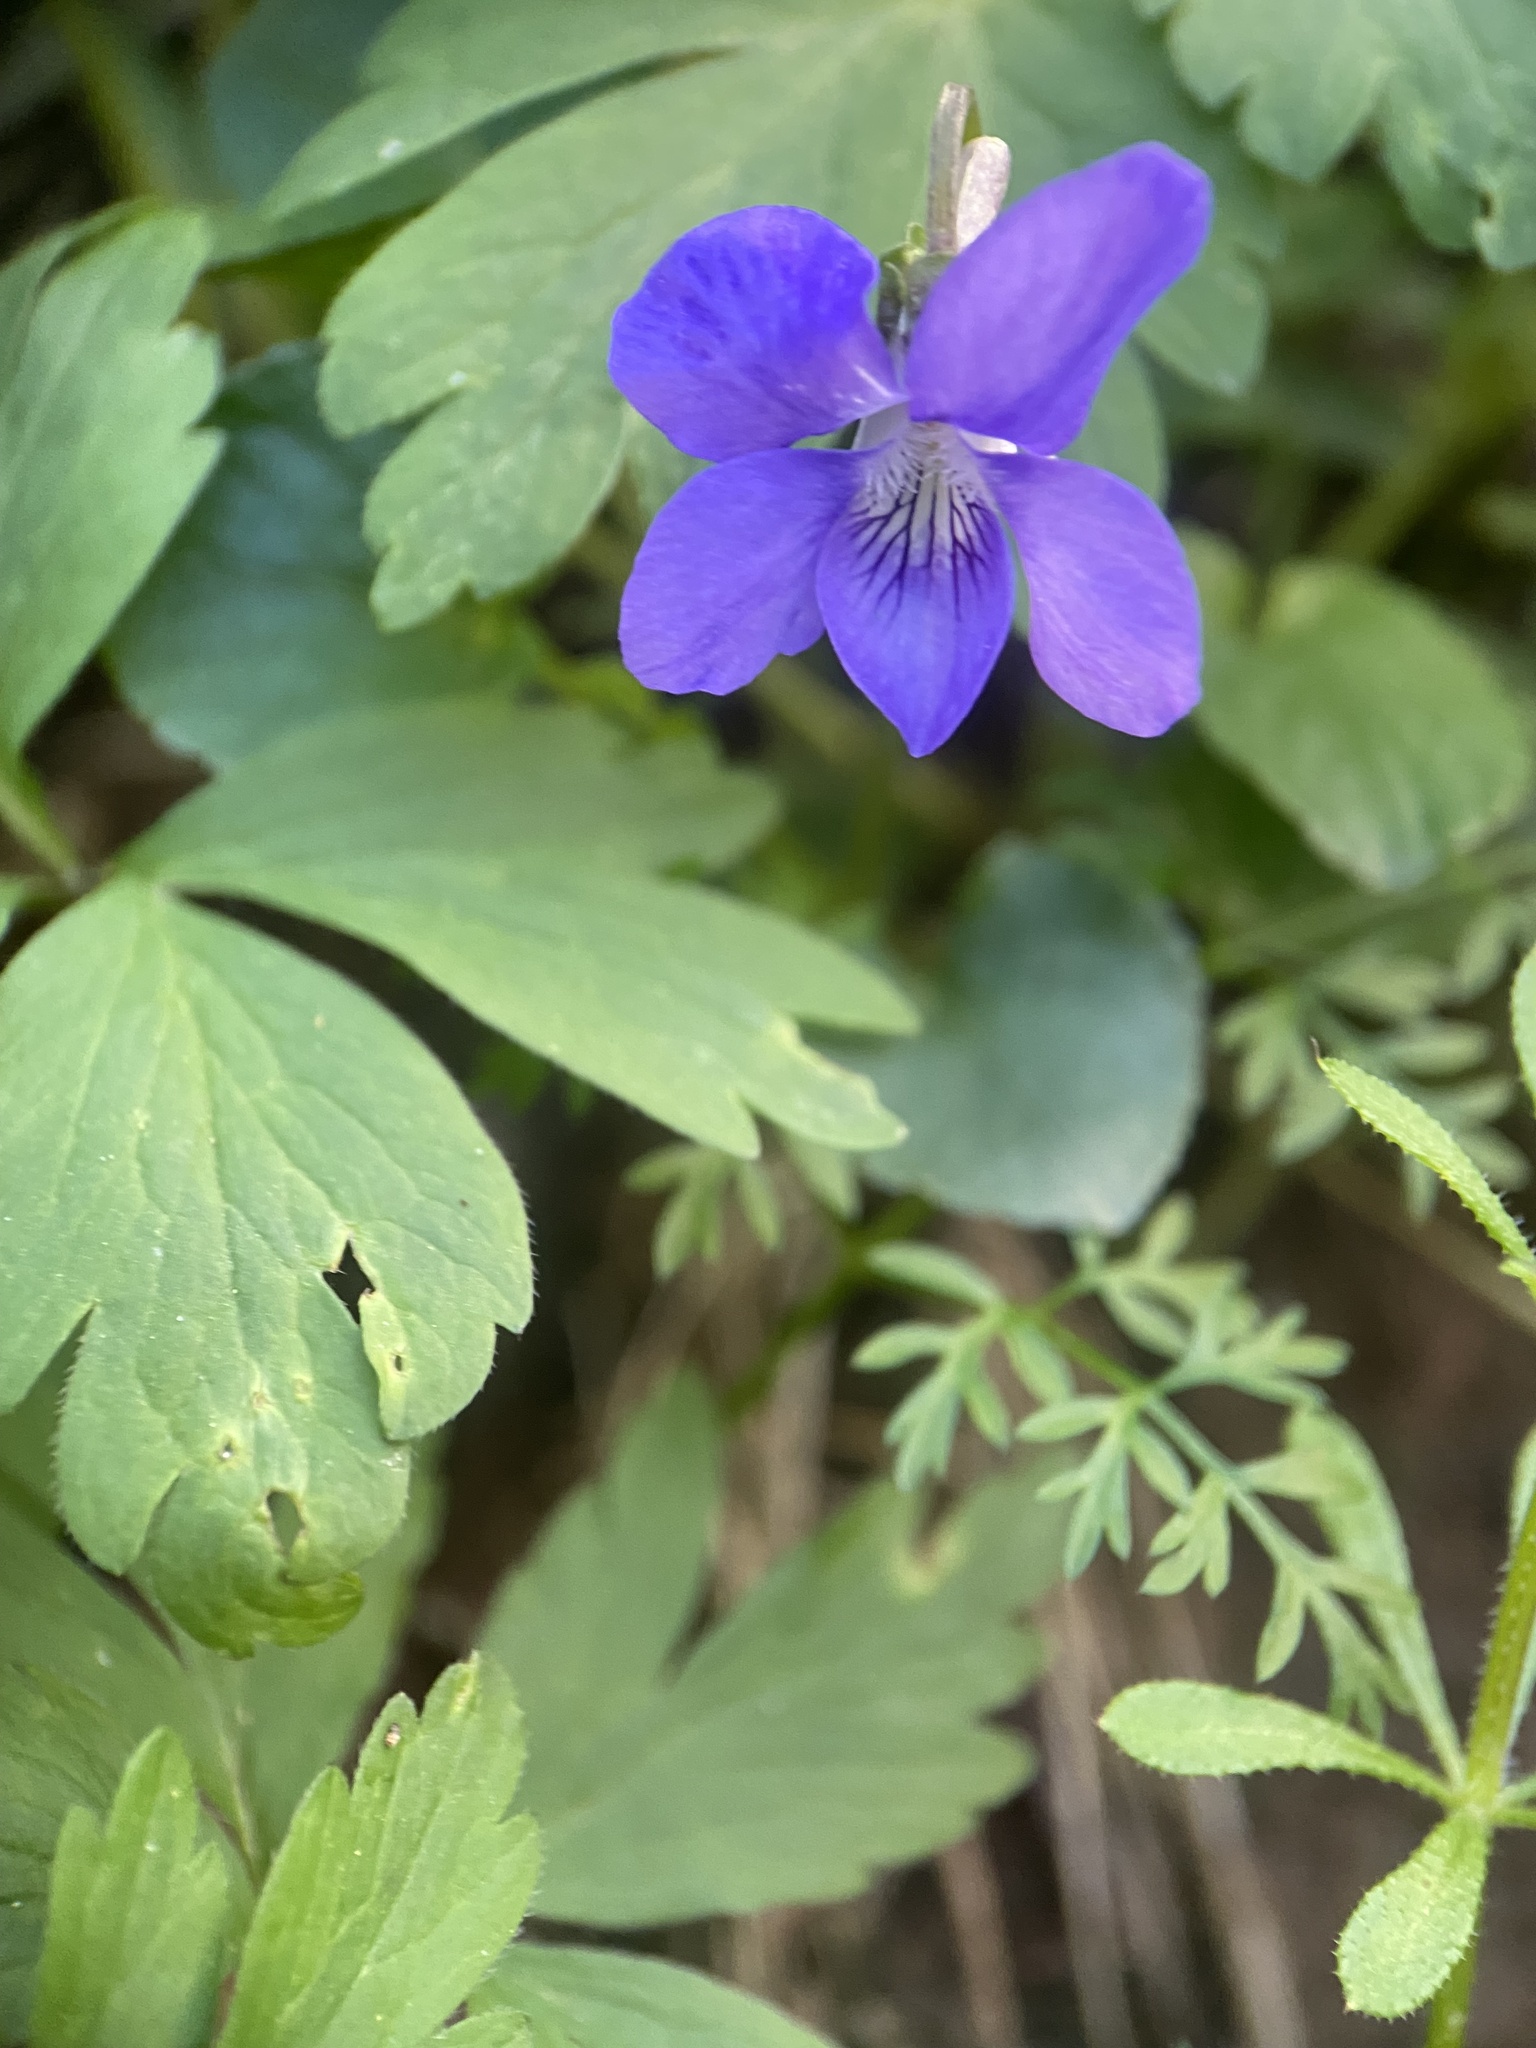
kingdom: Plantae
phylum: Tracheophyta
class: Magnoliopsida
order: Malpighiales
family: Violaceae
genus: Viola
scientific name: Viola riviniana
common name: Common dog-violet
